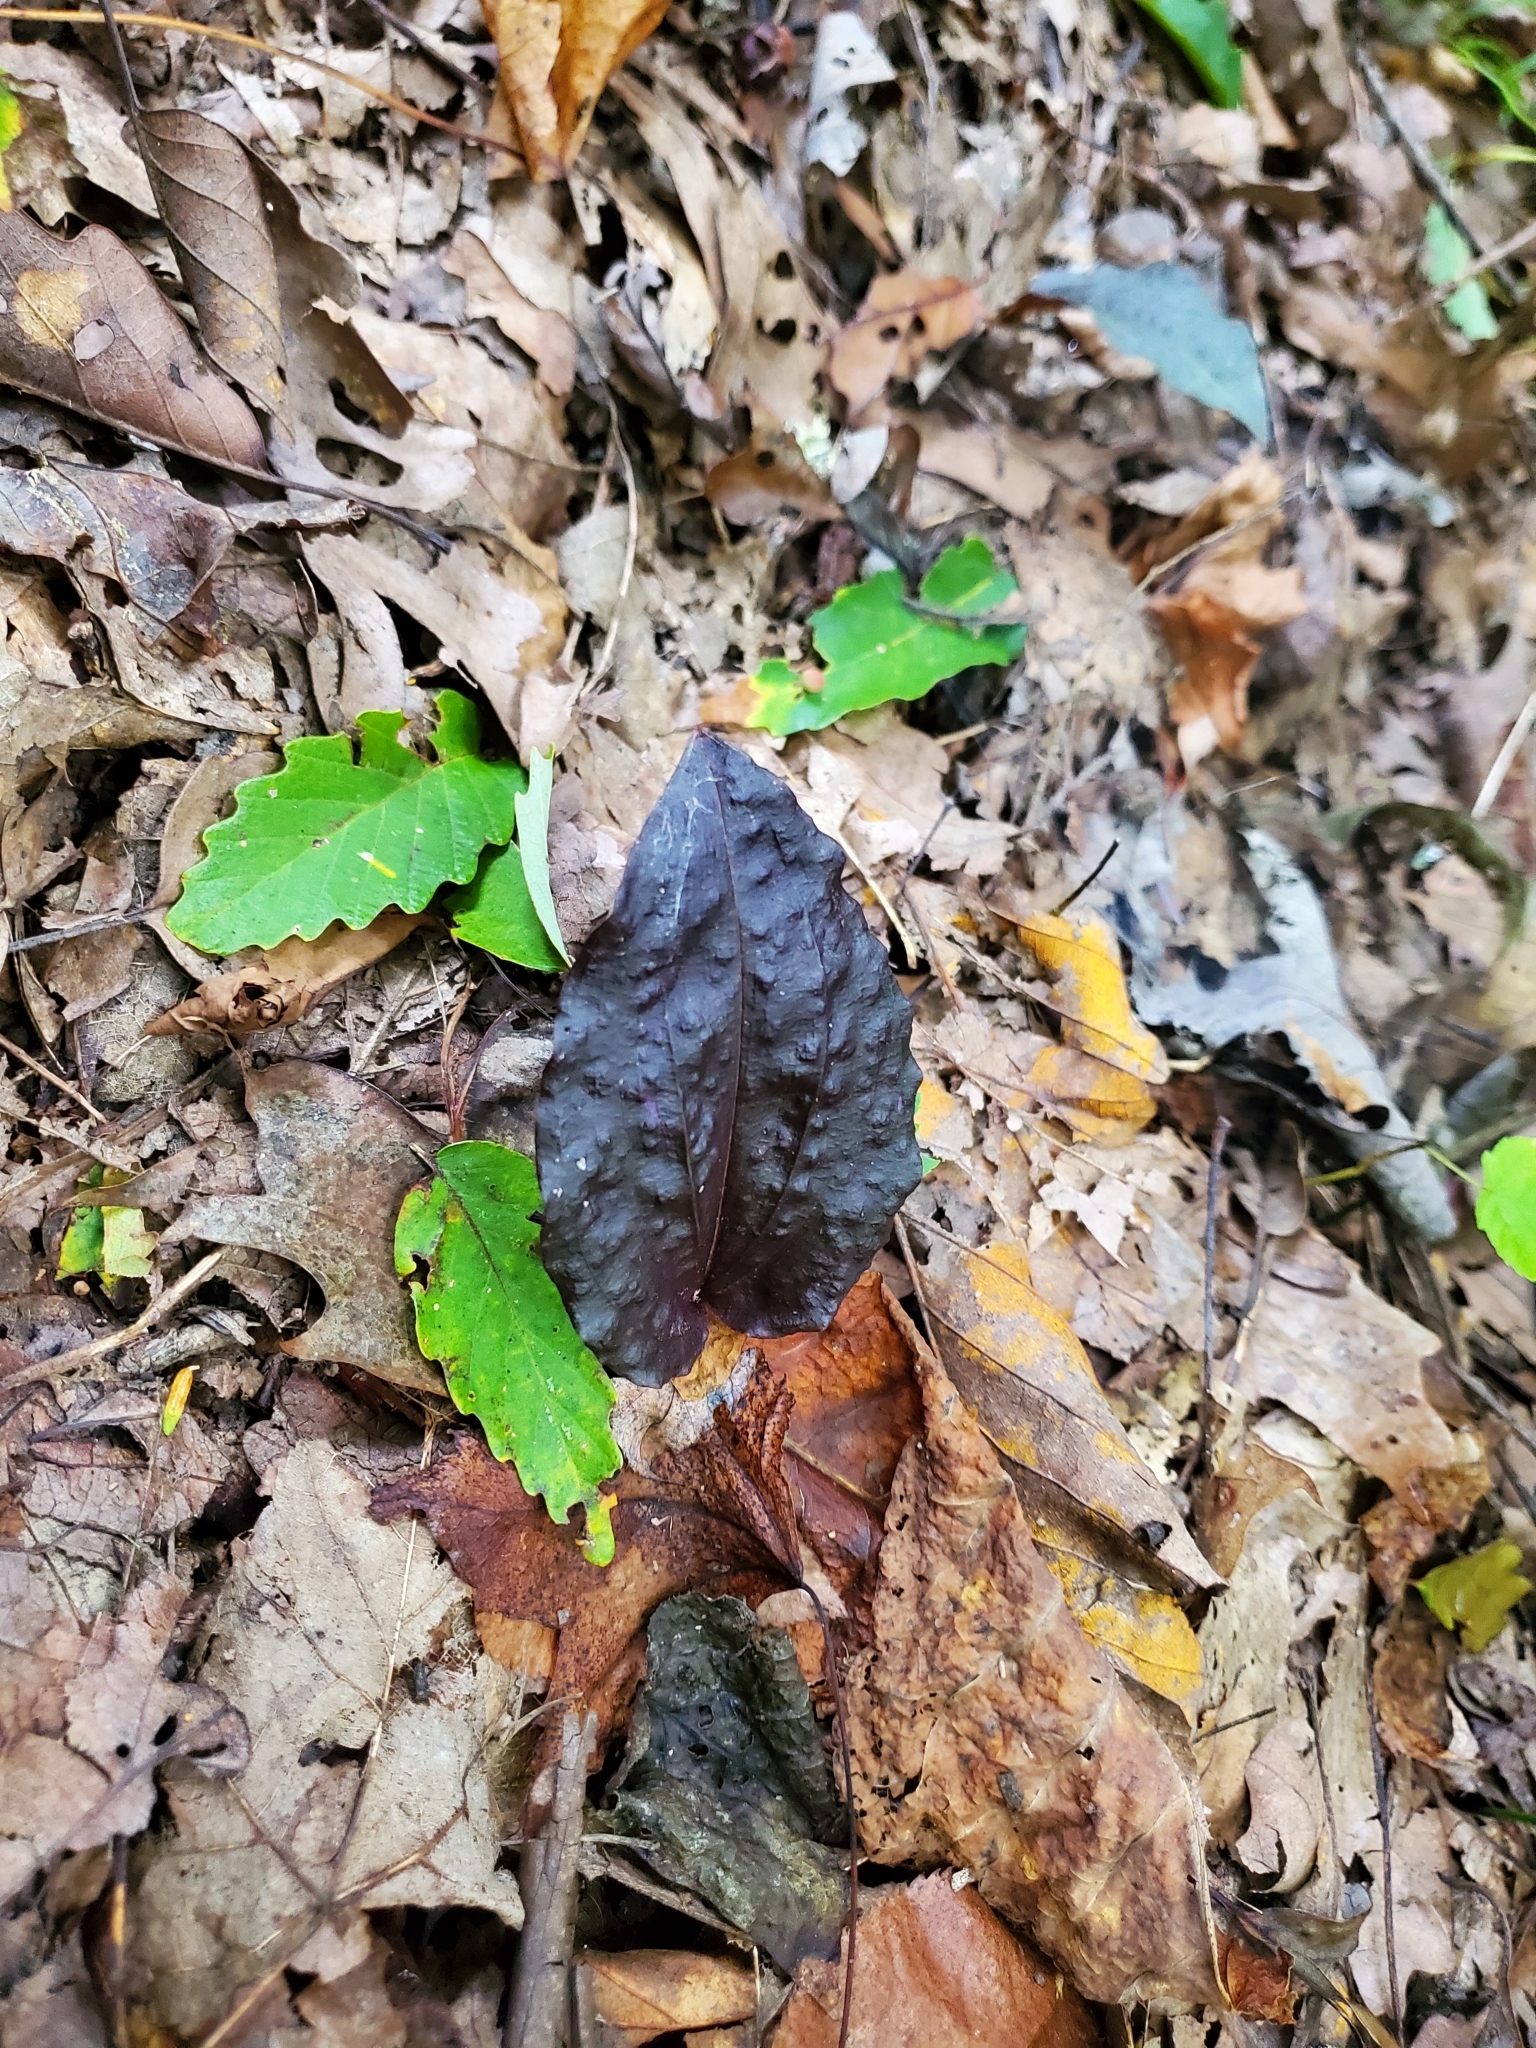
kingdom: Plantae
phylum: Tracheophyta
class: Liliopsida
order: Asparagales
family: Orchidaceae
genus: Tipularia
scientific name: Tipularia discolor
